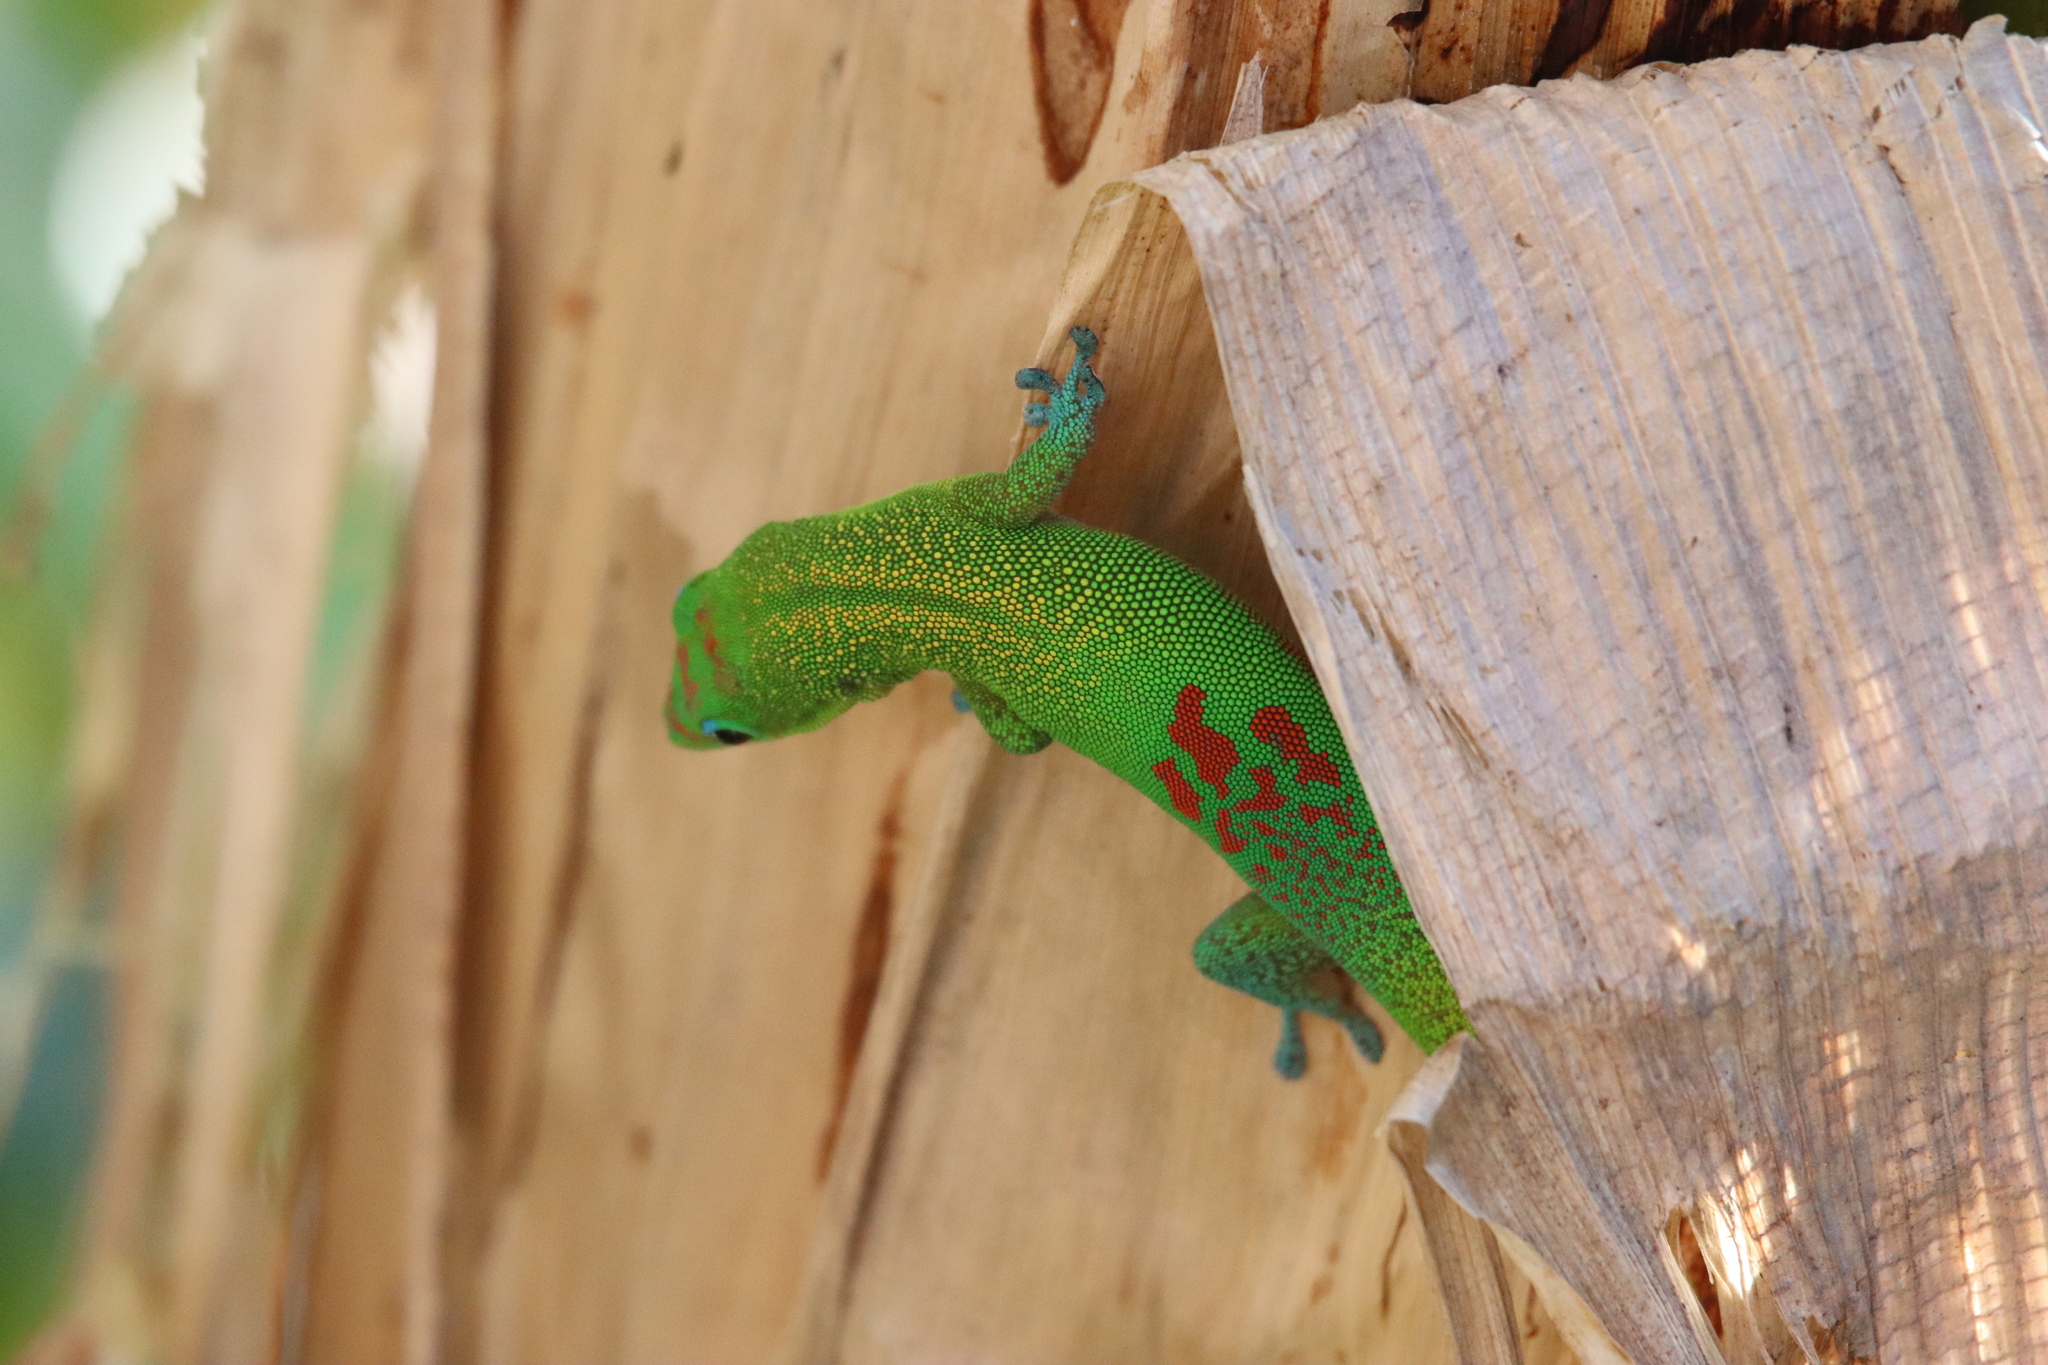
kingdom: Animalia
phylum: Chordata
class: Squamata
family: Gekkonidae
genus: Phelsuma
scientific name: Phelsuma laticauda
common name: Gold dust day gecko
